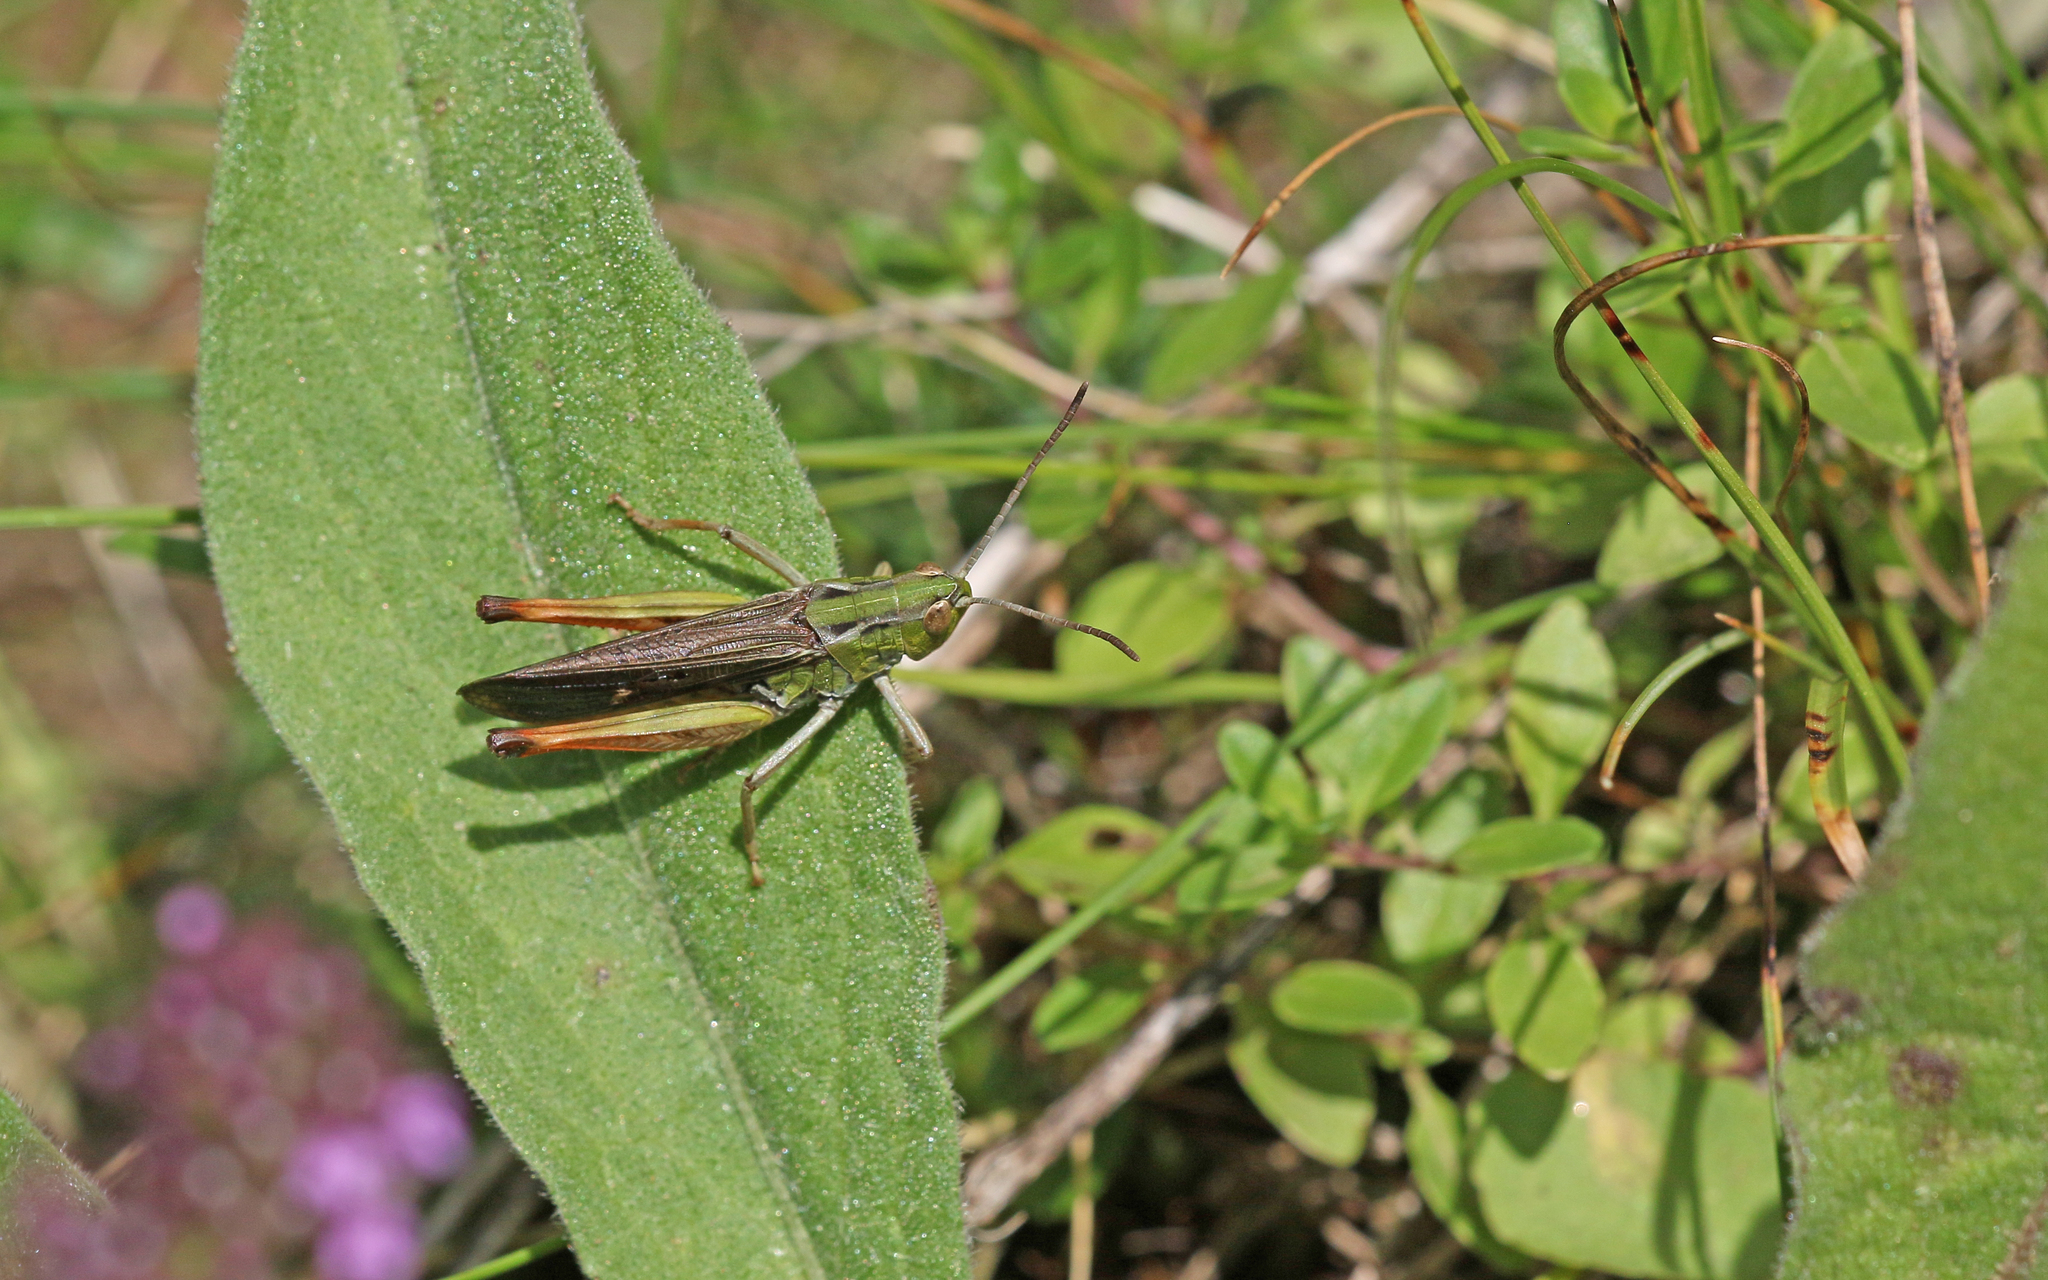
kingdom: Animalia
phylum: Arthropoda
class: Insecta
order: Orthoptera
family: Acrididae
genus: Stenobothrus
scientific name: Stenobothrus rubicundulus
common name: Wing-buzzing grasshopper
